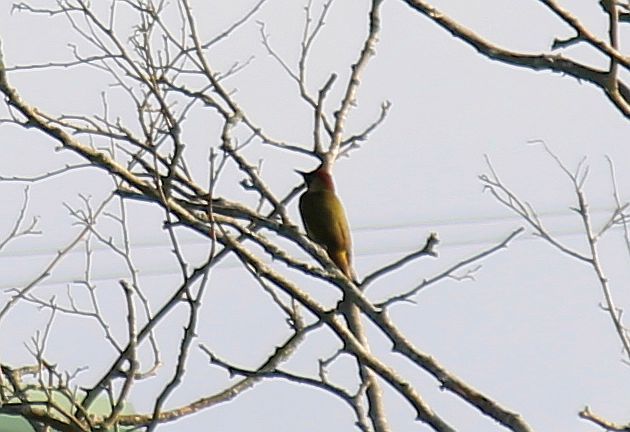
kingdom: Animalia
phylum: Chordata
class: Aves
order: Piciformes
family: Picidae
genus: Picus
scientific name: Picus viridis
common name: European green woodpecker
